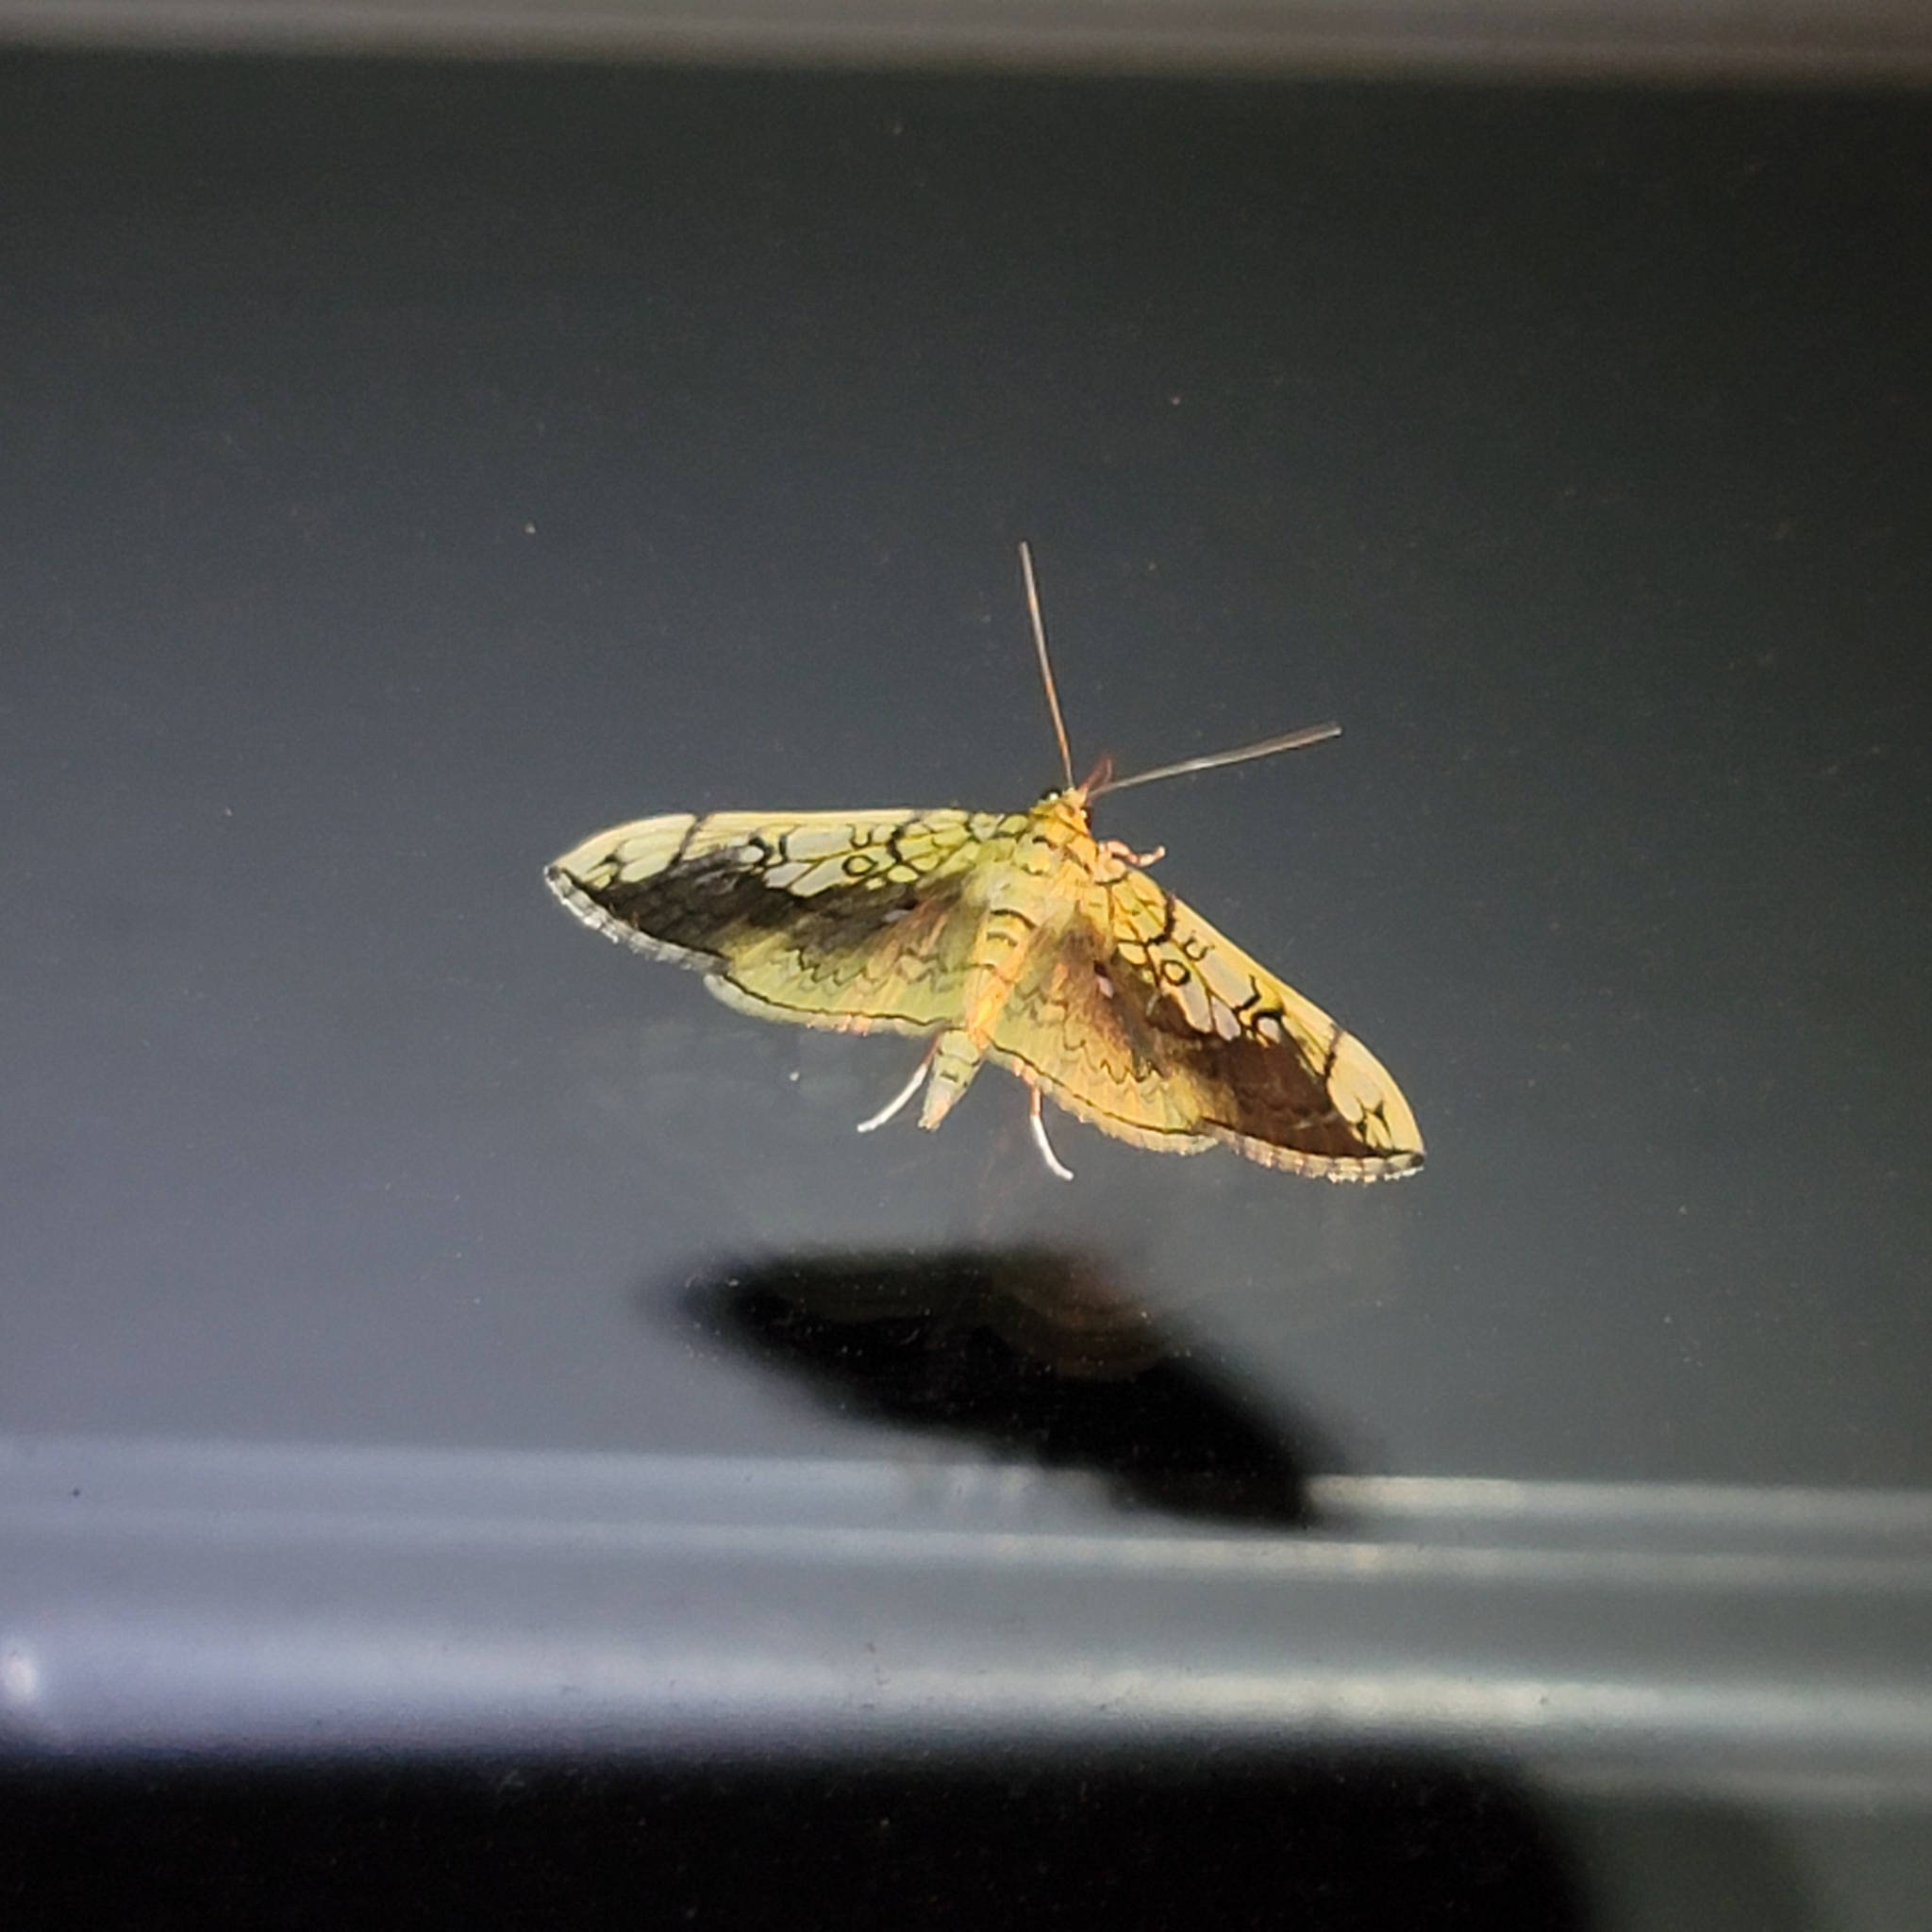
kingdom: Animalia
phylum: Arthropoda
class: Insecta
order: Lepidoptera
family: Crambidae
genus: Pantographa
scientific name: Pantographa limata
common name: Basswood leafroller moth
